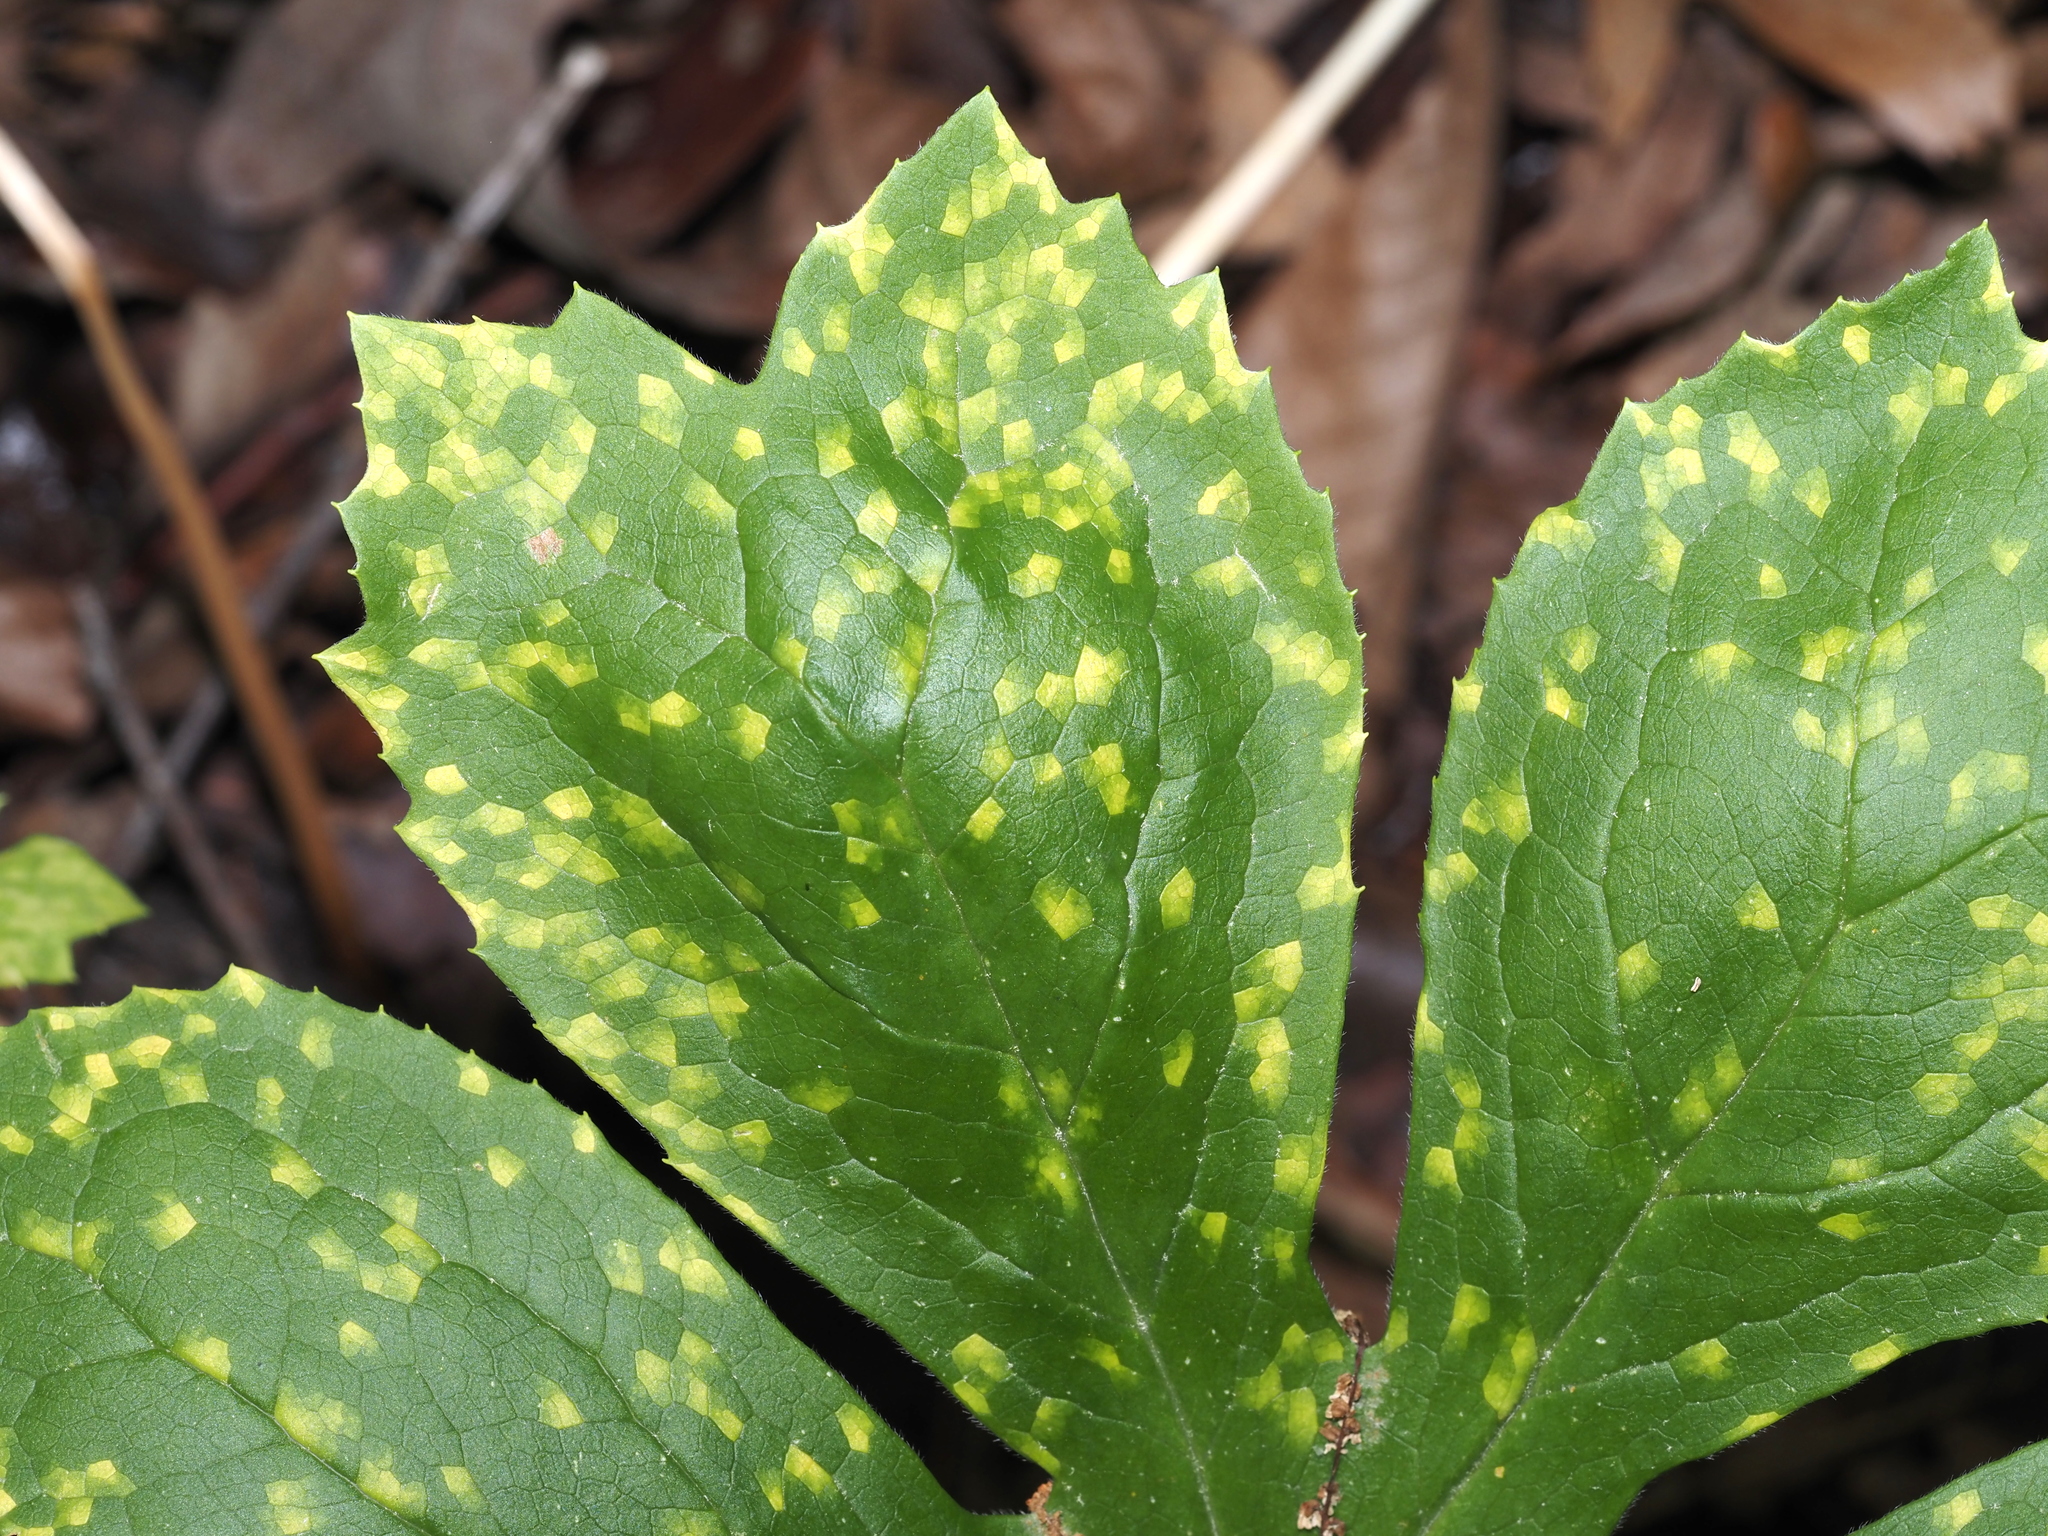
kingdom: Fungi
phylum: Basidiomycota
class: Pucciniomycetes
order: Pucciniales
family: Pucciniaceae
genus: Puccinia
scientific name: Puccinia podophylli
